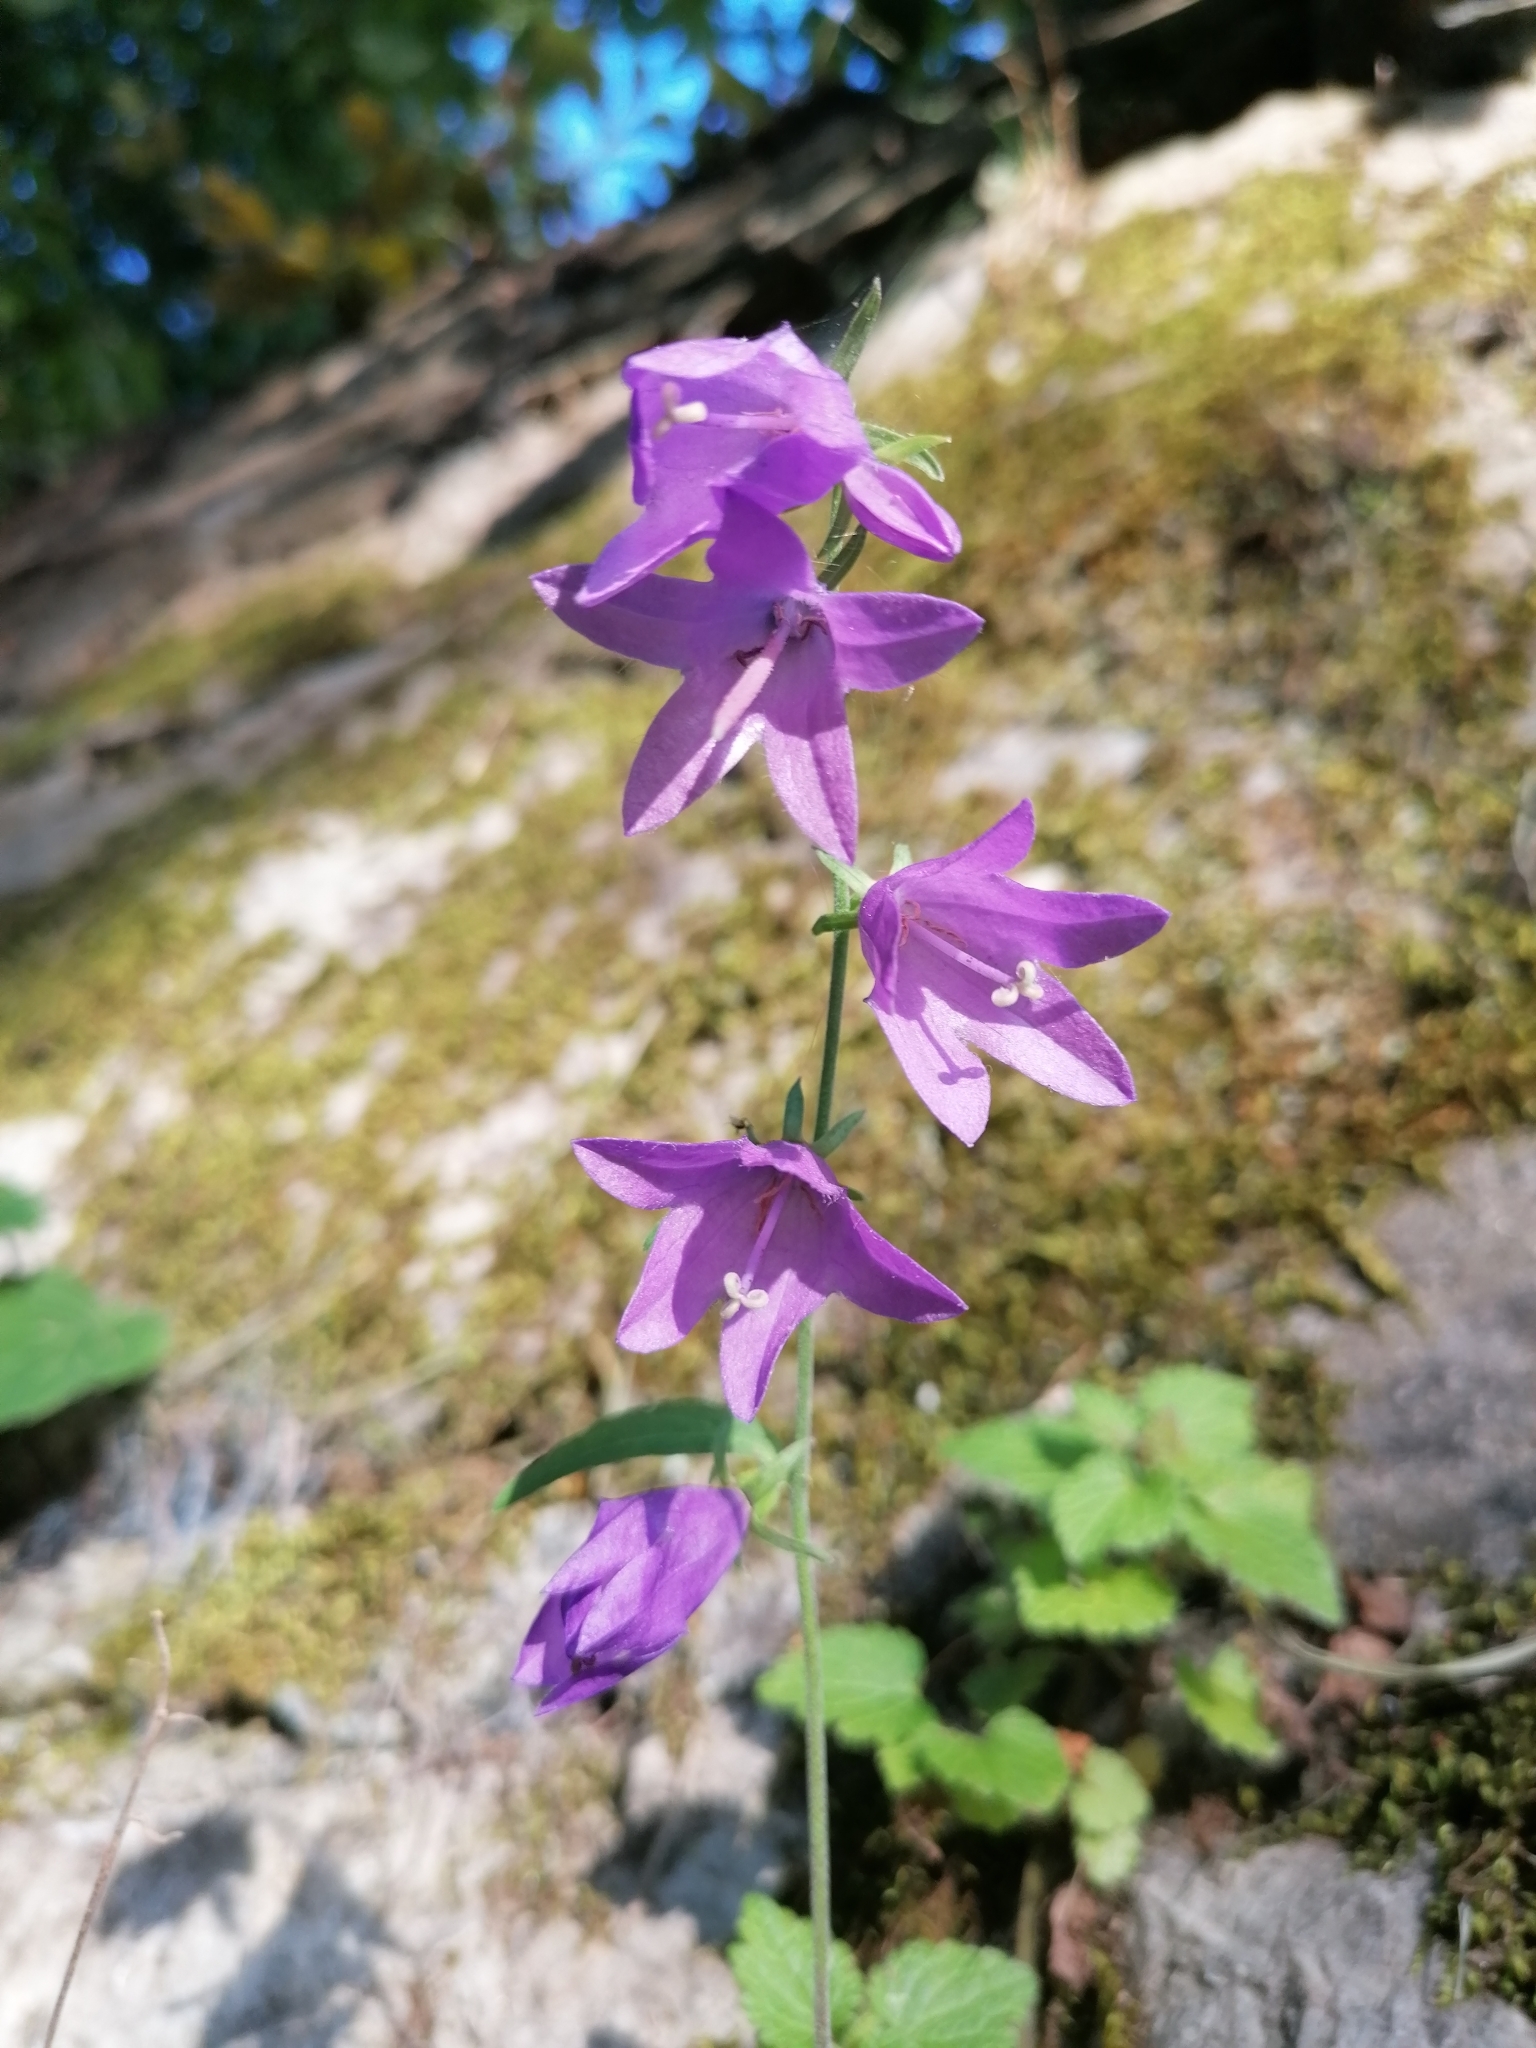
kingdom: Plantae
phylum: Tracheophyta
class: Magnoliopsida
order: Asterales
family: Campanulaceae
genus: Campanula
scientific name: Campanula rapunculoides
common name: Creeping bellflower
